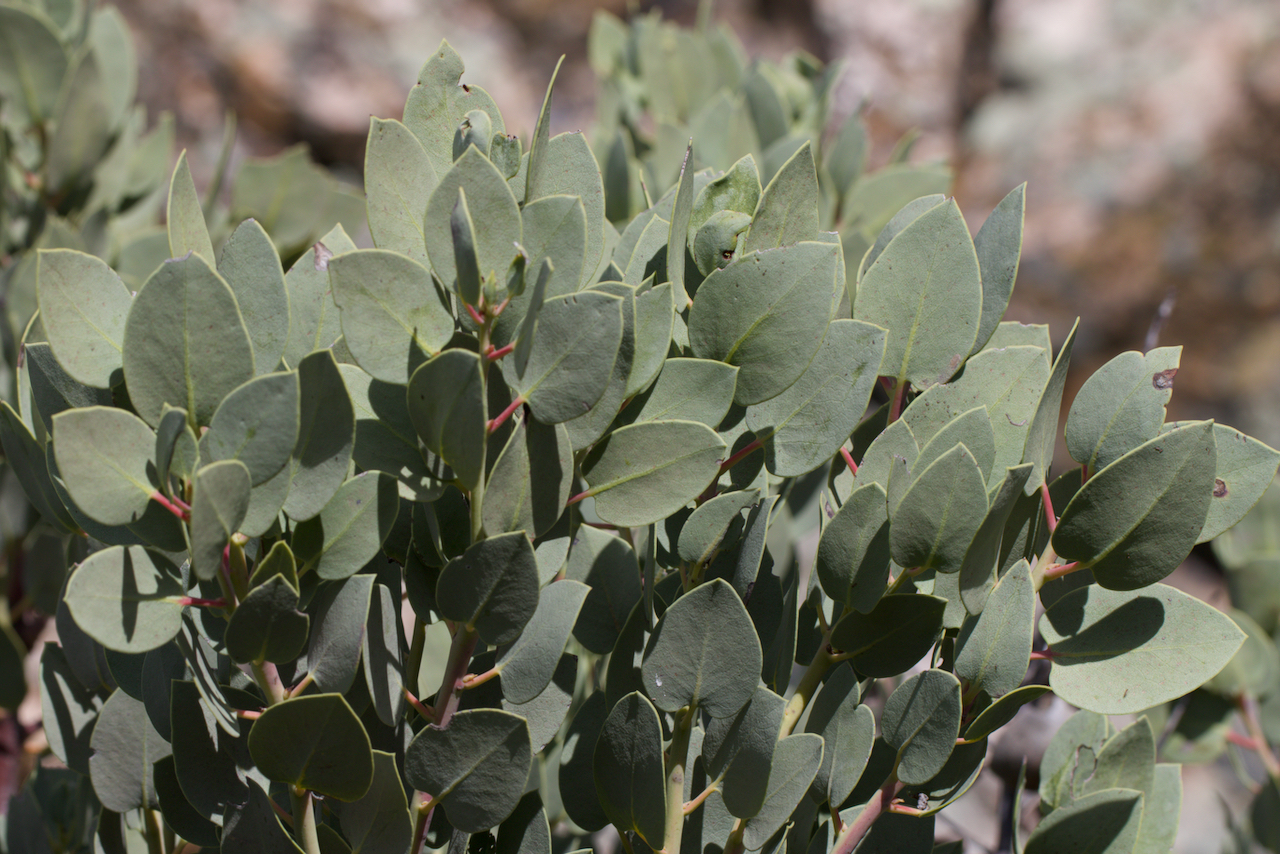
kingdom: Plantae
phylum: Tracheophyta
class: Magnoliopsida
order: Ericales
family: Ericaceae
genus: Arctostaphylos
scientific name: Arctostaphylos glauca
